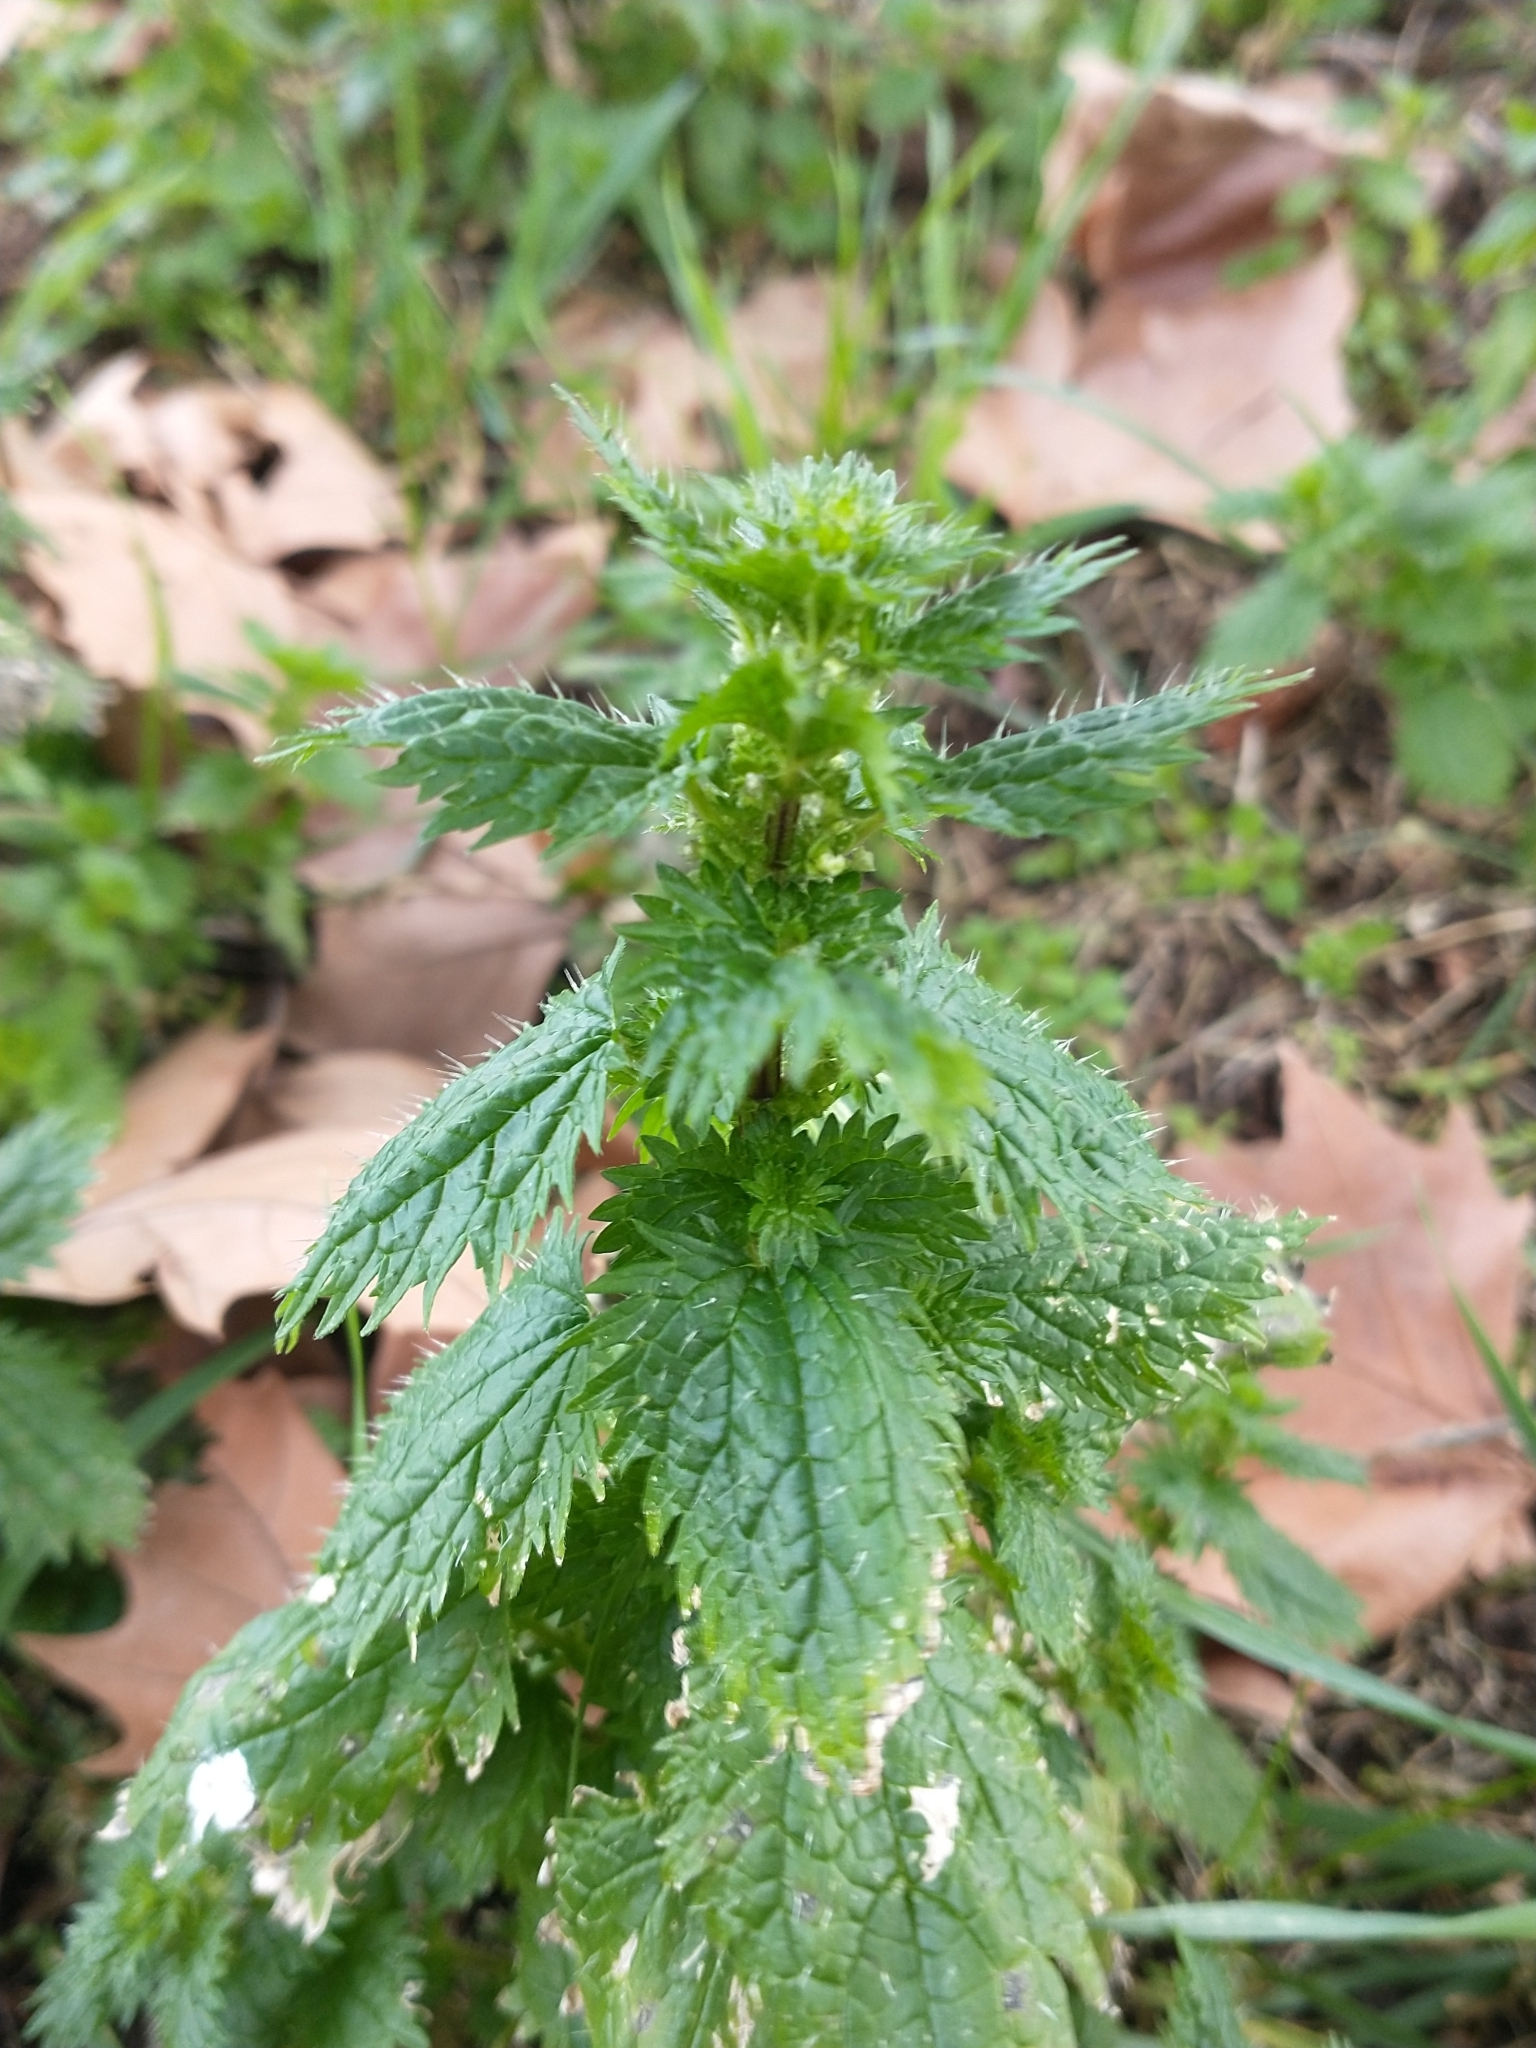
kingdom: Plantae
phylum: Tracheophyta
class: Magnoliopsida
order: Rosales
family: Urticaceae
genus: Urtica
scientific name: Urtica urens
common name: Dwarf nettle
